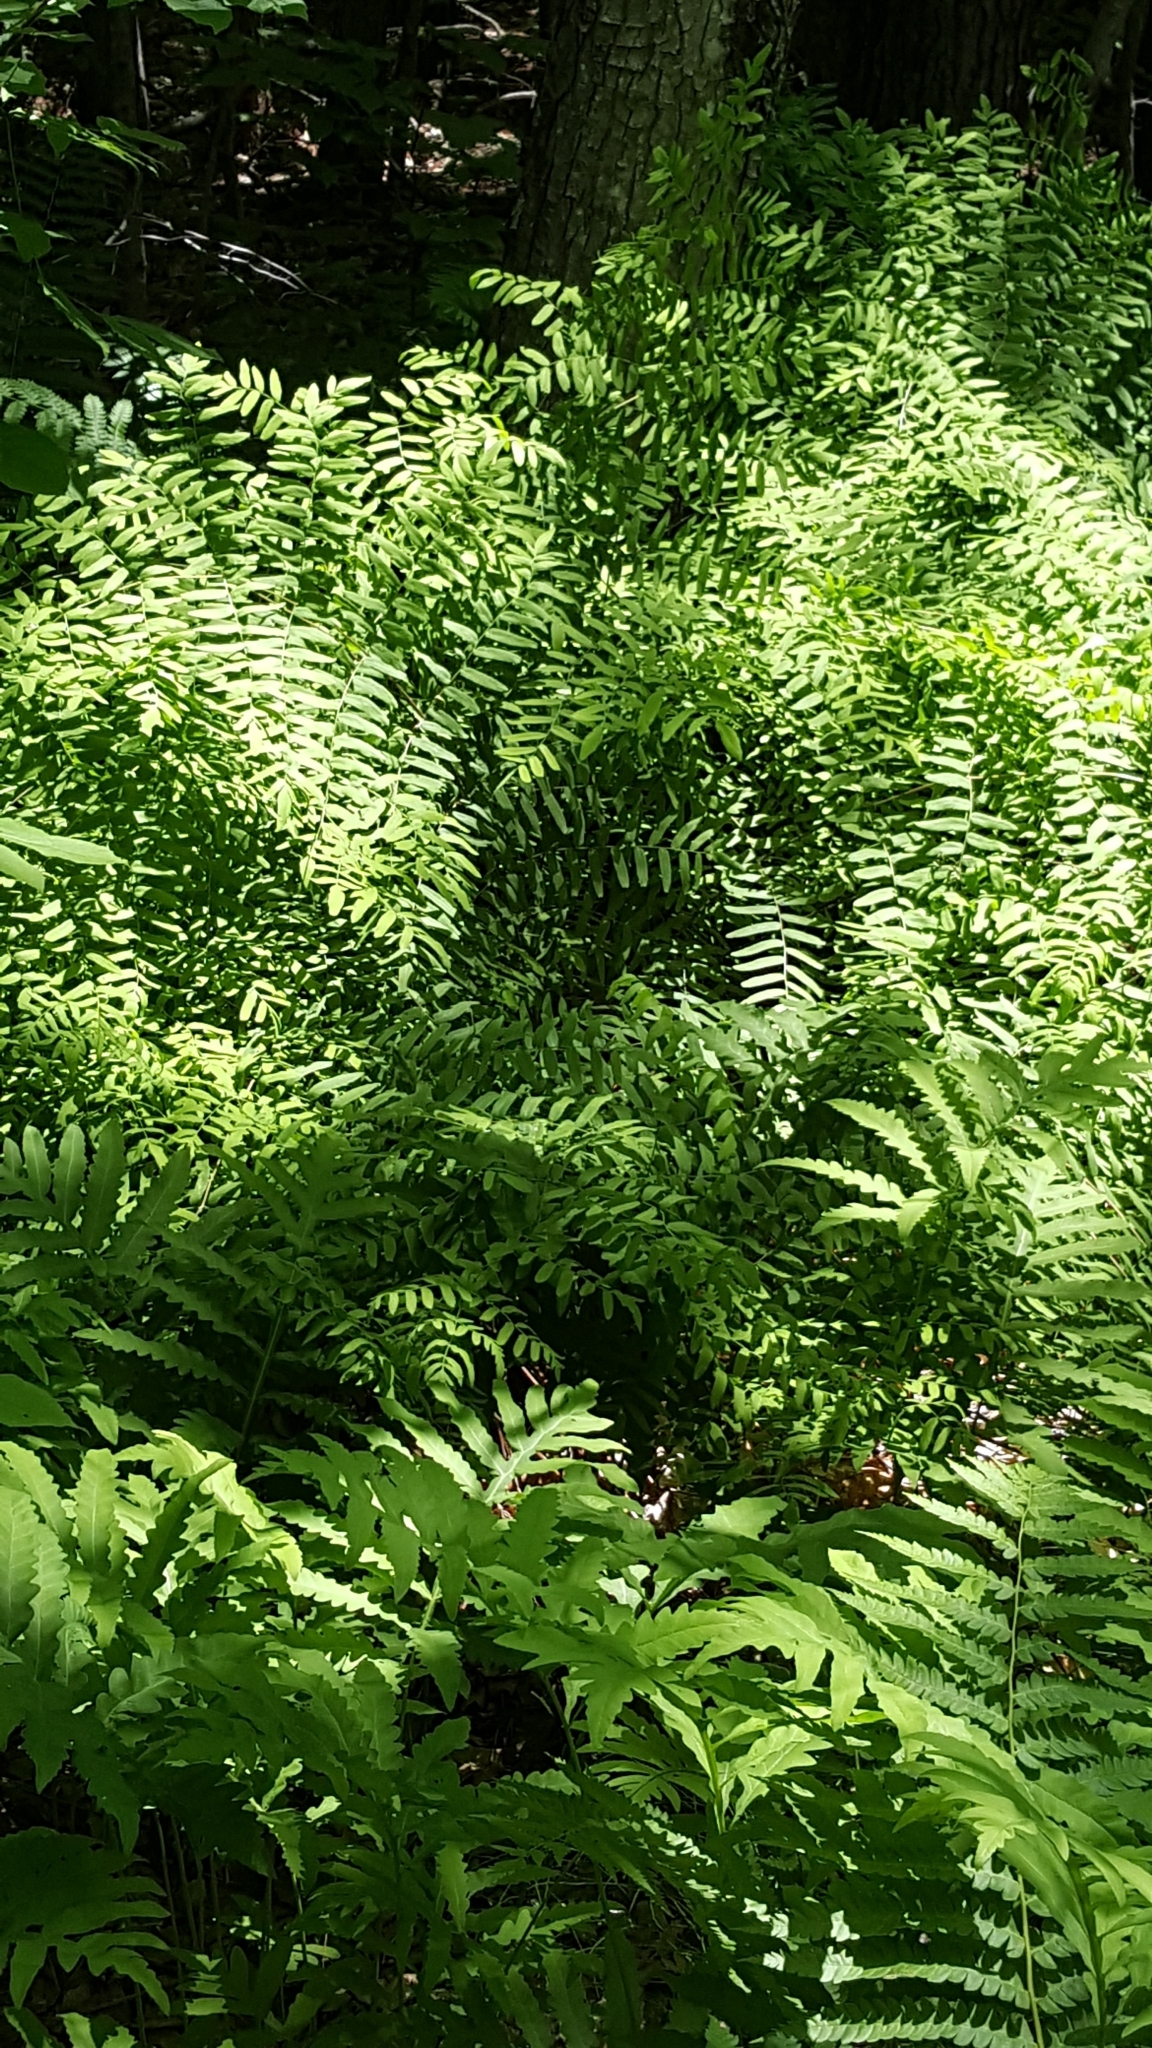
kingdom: Plantae
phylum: Tracheophyta
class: Polypodiopsida
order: Osmundales
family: Osmundaceae
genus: Osmunda
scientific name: Osmunda spectabilis
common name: American royal fern
